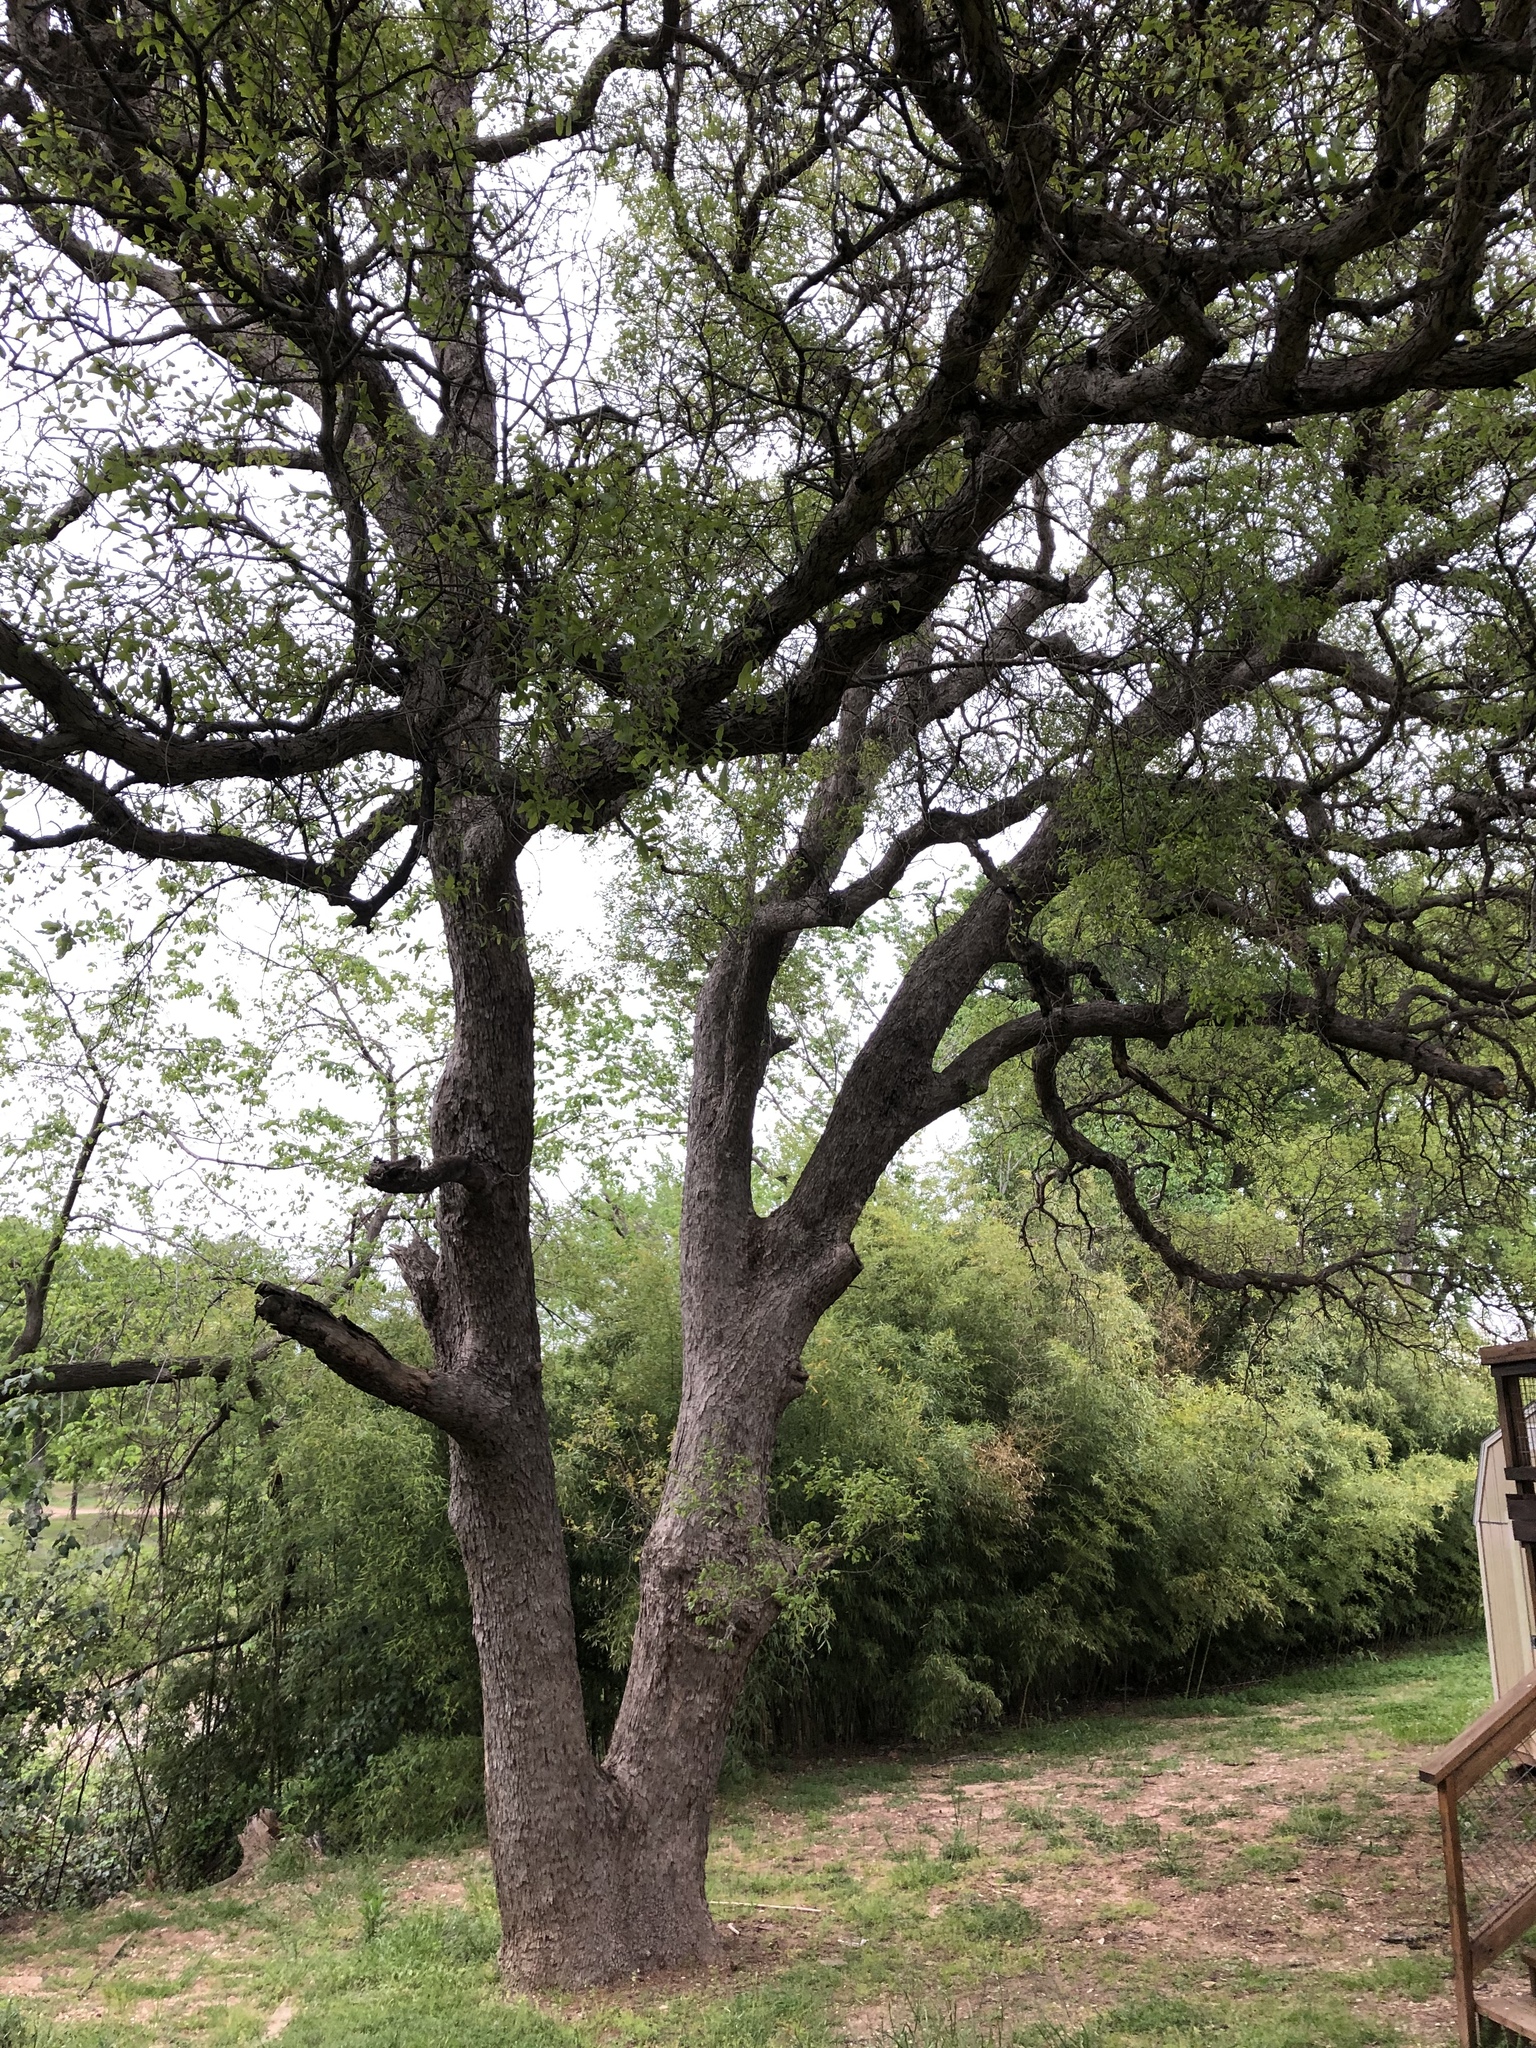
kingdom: Plantae
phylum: Tracheophyta
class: Magnoliopsida
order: Fagales
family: Fagaceae
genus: Quercus
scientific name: Quercus sinuata
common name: Durand oak
